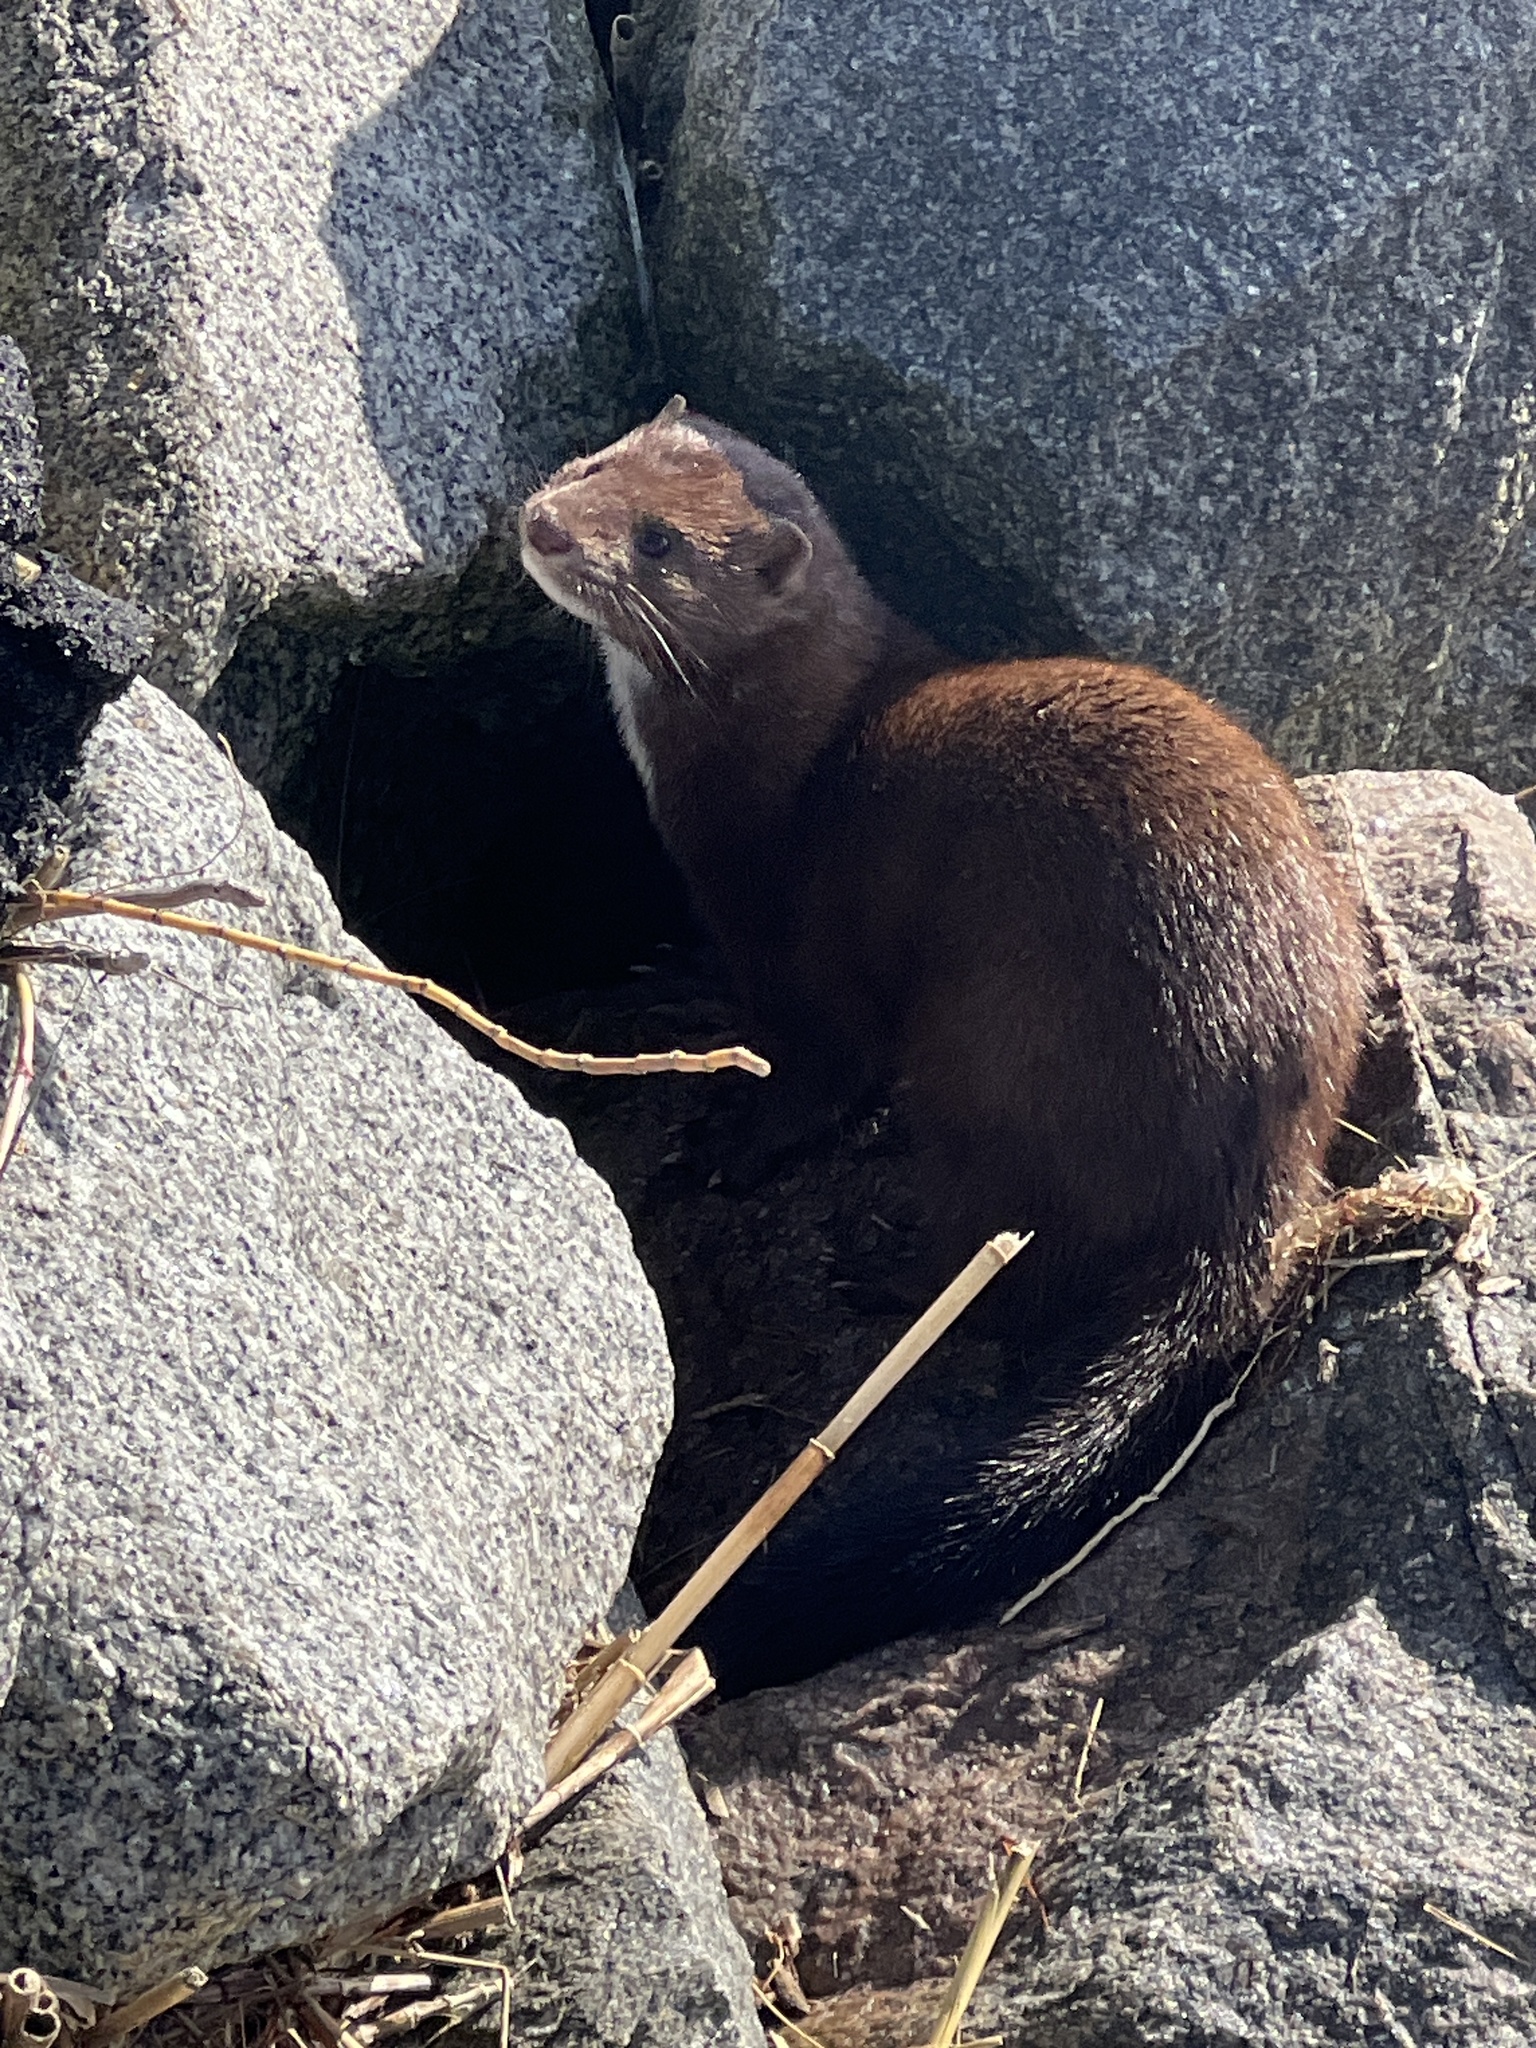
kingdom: Animalia
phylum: Chordata
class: Mammalia
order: Carnivora
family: Mustelidae
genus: Mustela
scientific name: Mustela
